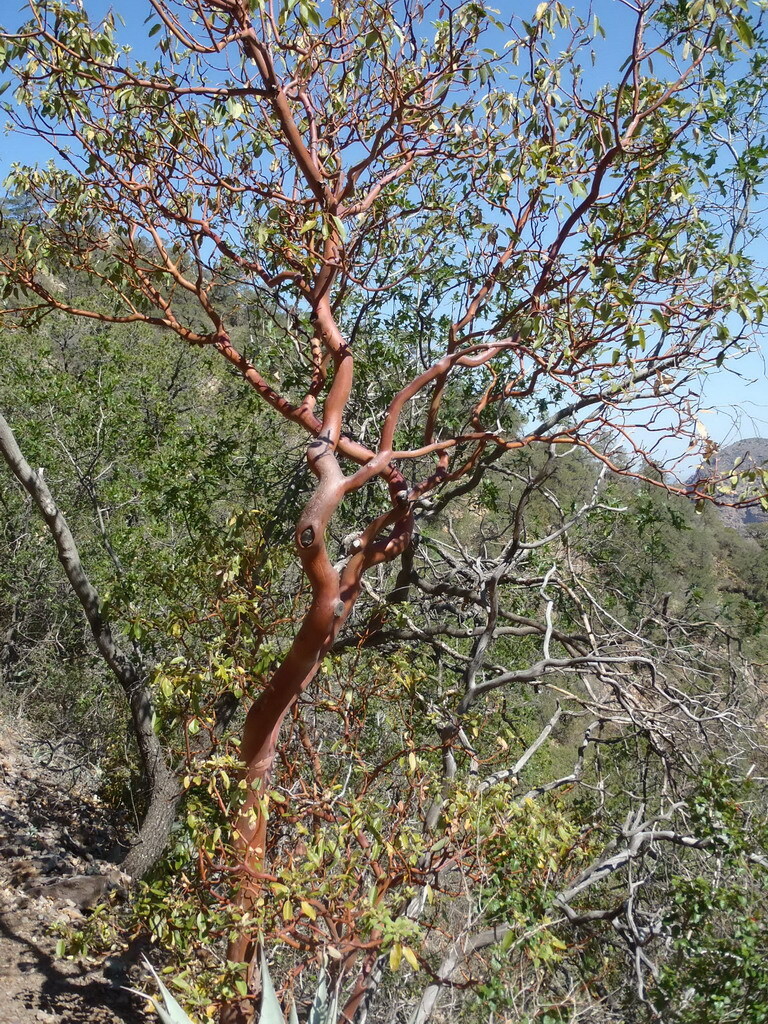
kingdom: Plantae
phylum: Tracheophyta
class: Magnoliopsida
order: Ericales
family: Ericaceae
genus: Arbutus
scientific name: Arbutus xalapensis
